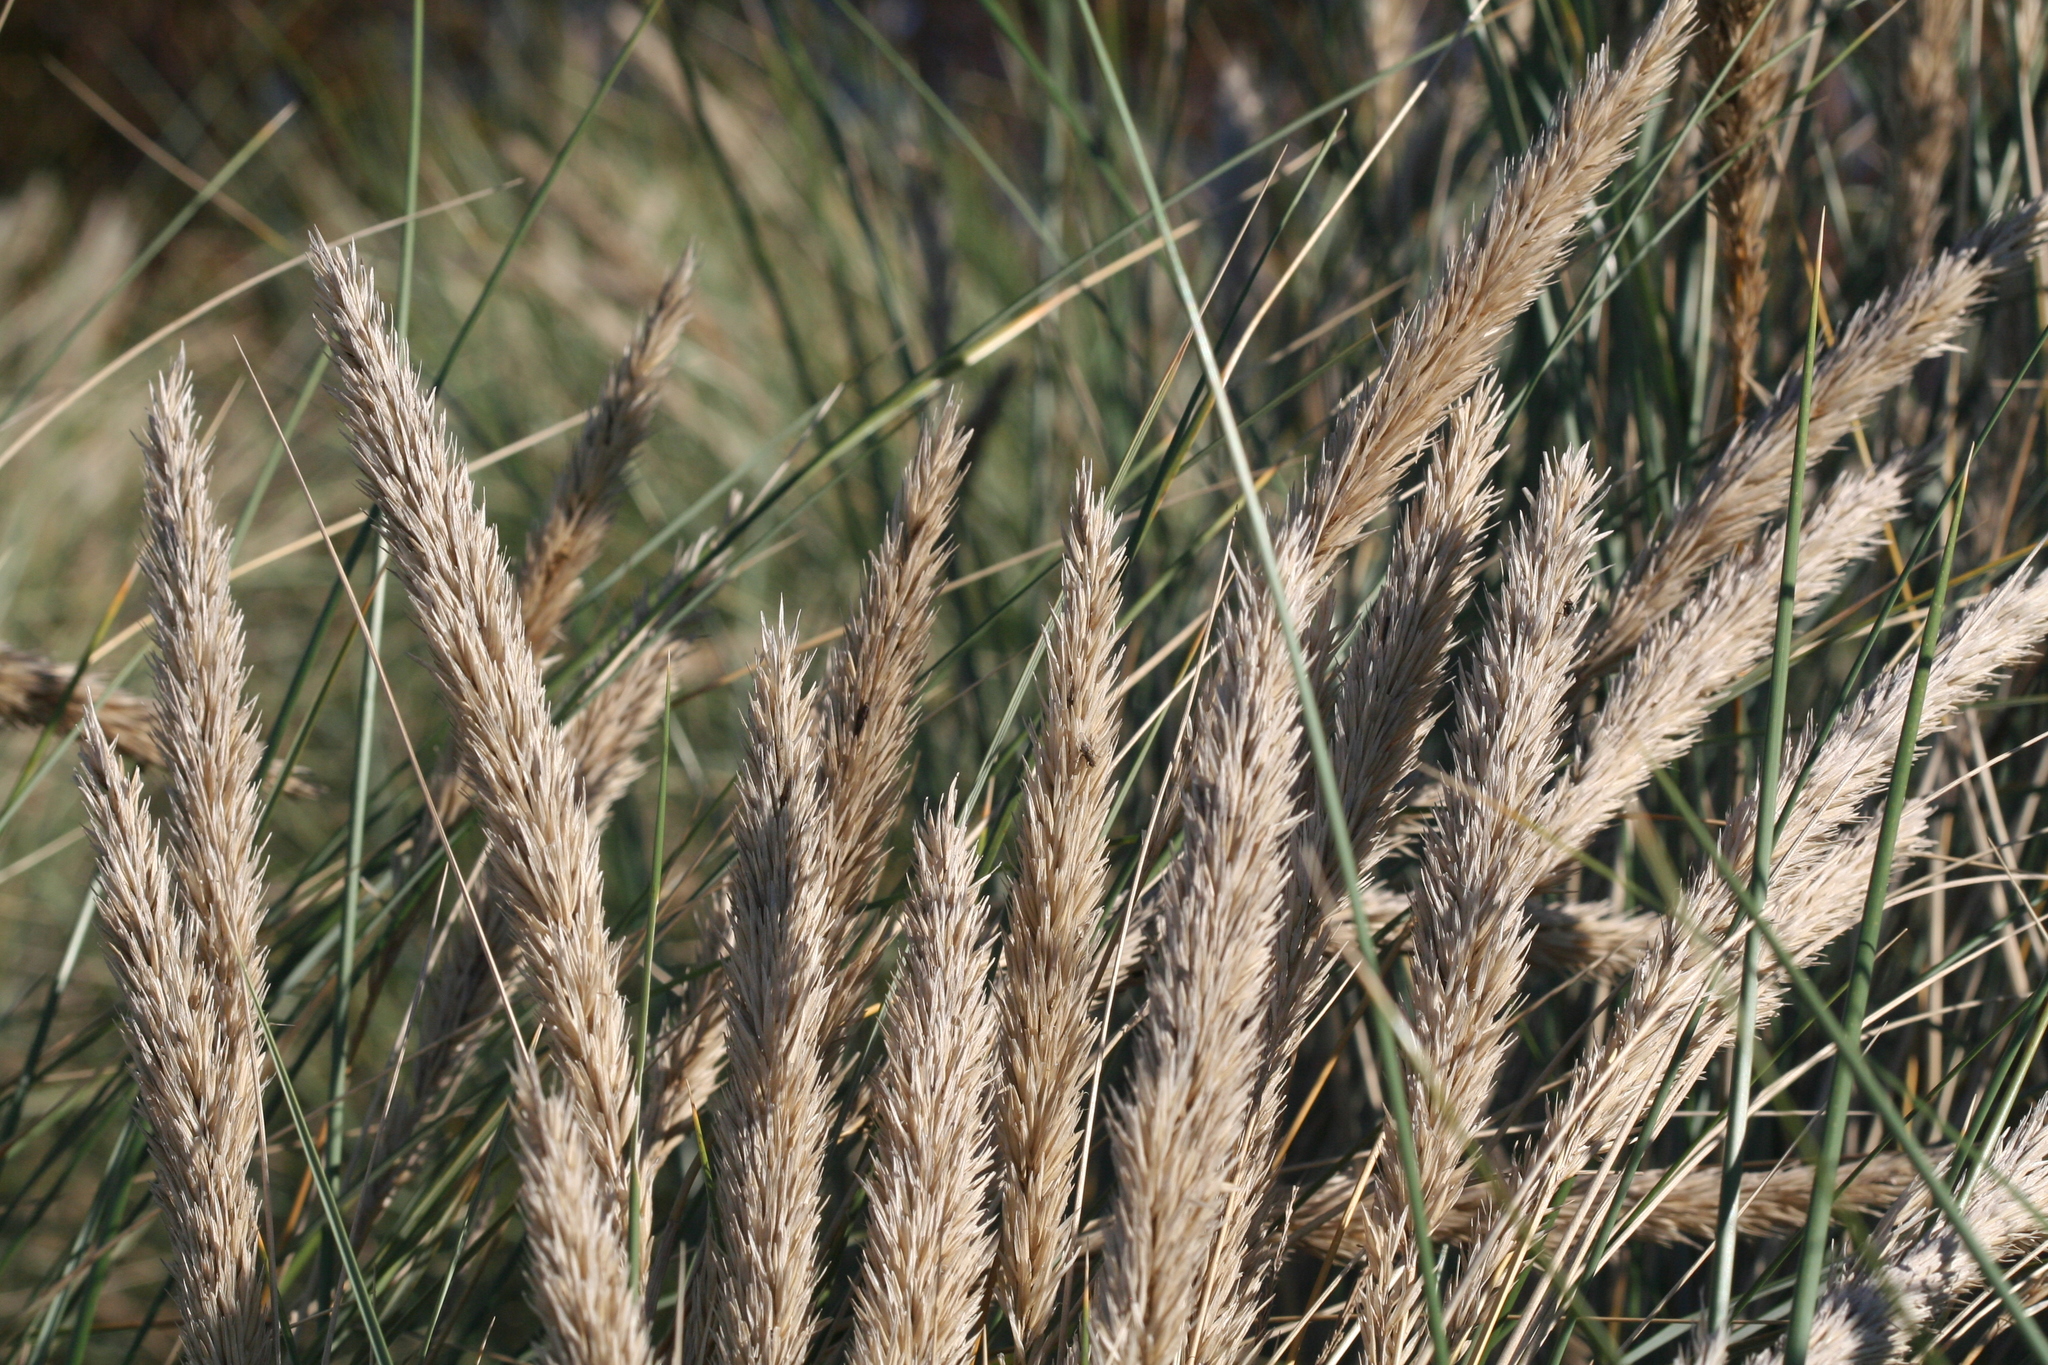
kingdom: Plantae
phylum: Tracheophyta
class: Liliopsida
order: Poales
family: Poaceae
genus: Calamagrostis
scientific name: Calamagrostis arenaria
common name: European beachgrass
